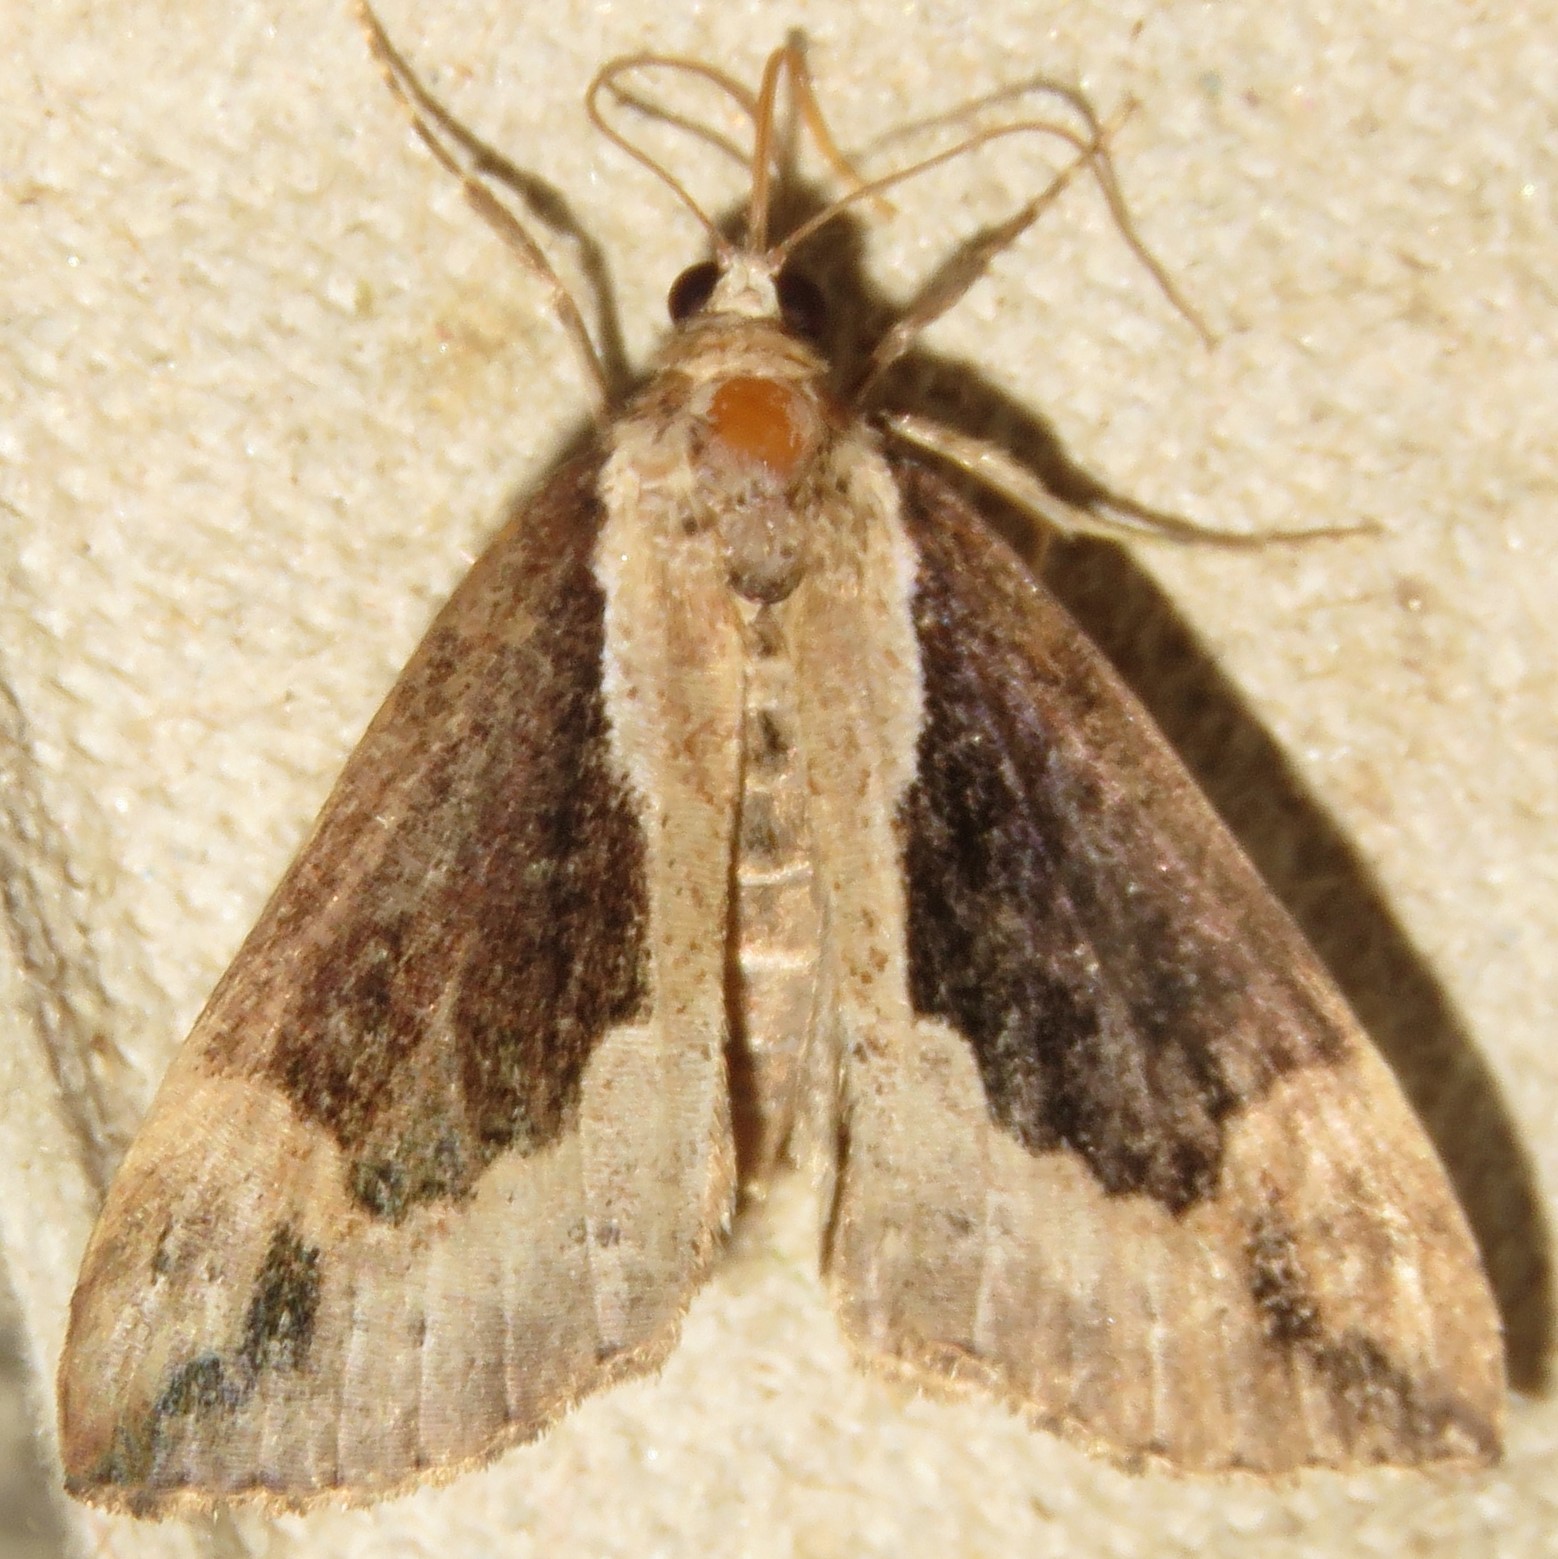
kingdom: Animalia
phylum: Arthropoda
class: Insecta
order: Lepidoptera
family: Erebidae
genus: Hypena
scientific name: Hypena baltimoralis
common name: Baltimore snout
